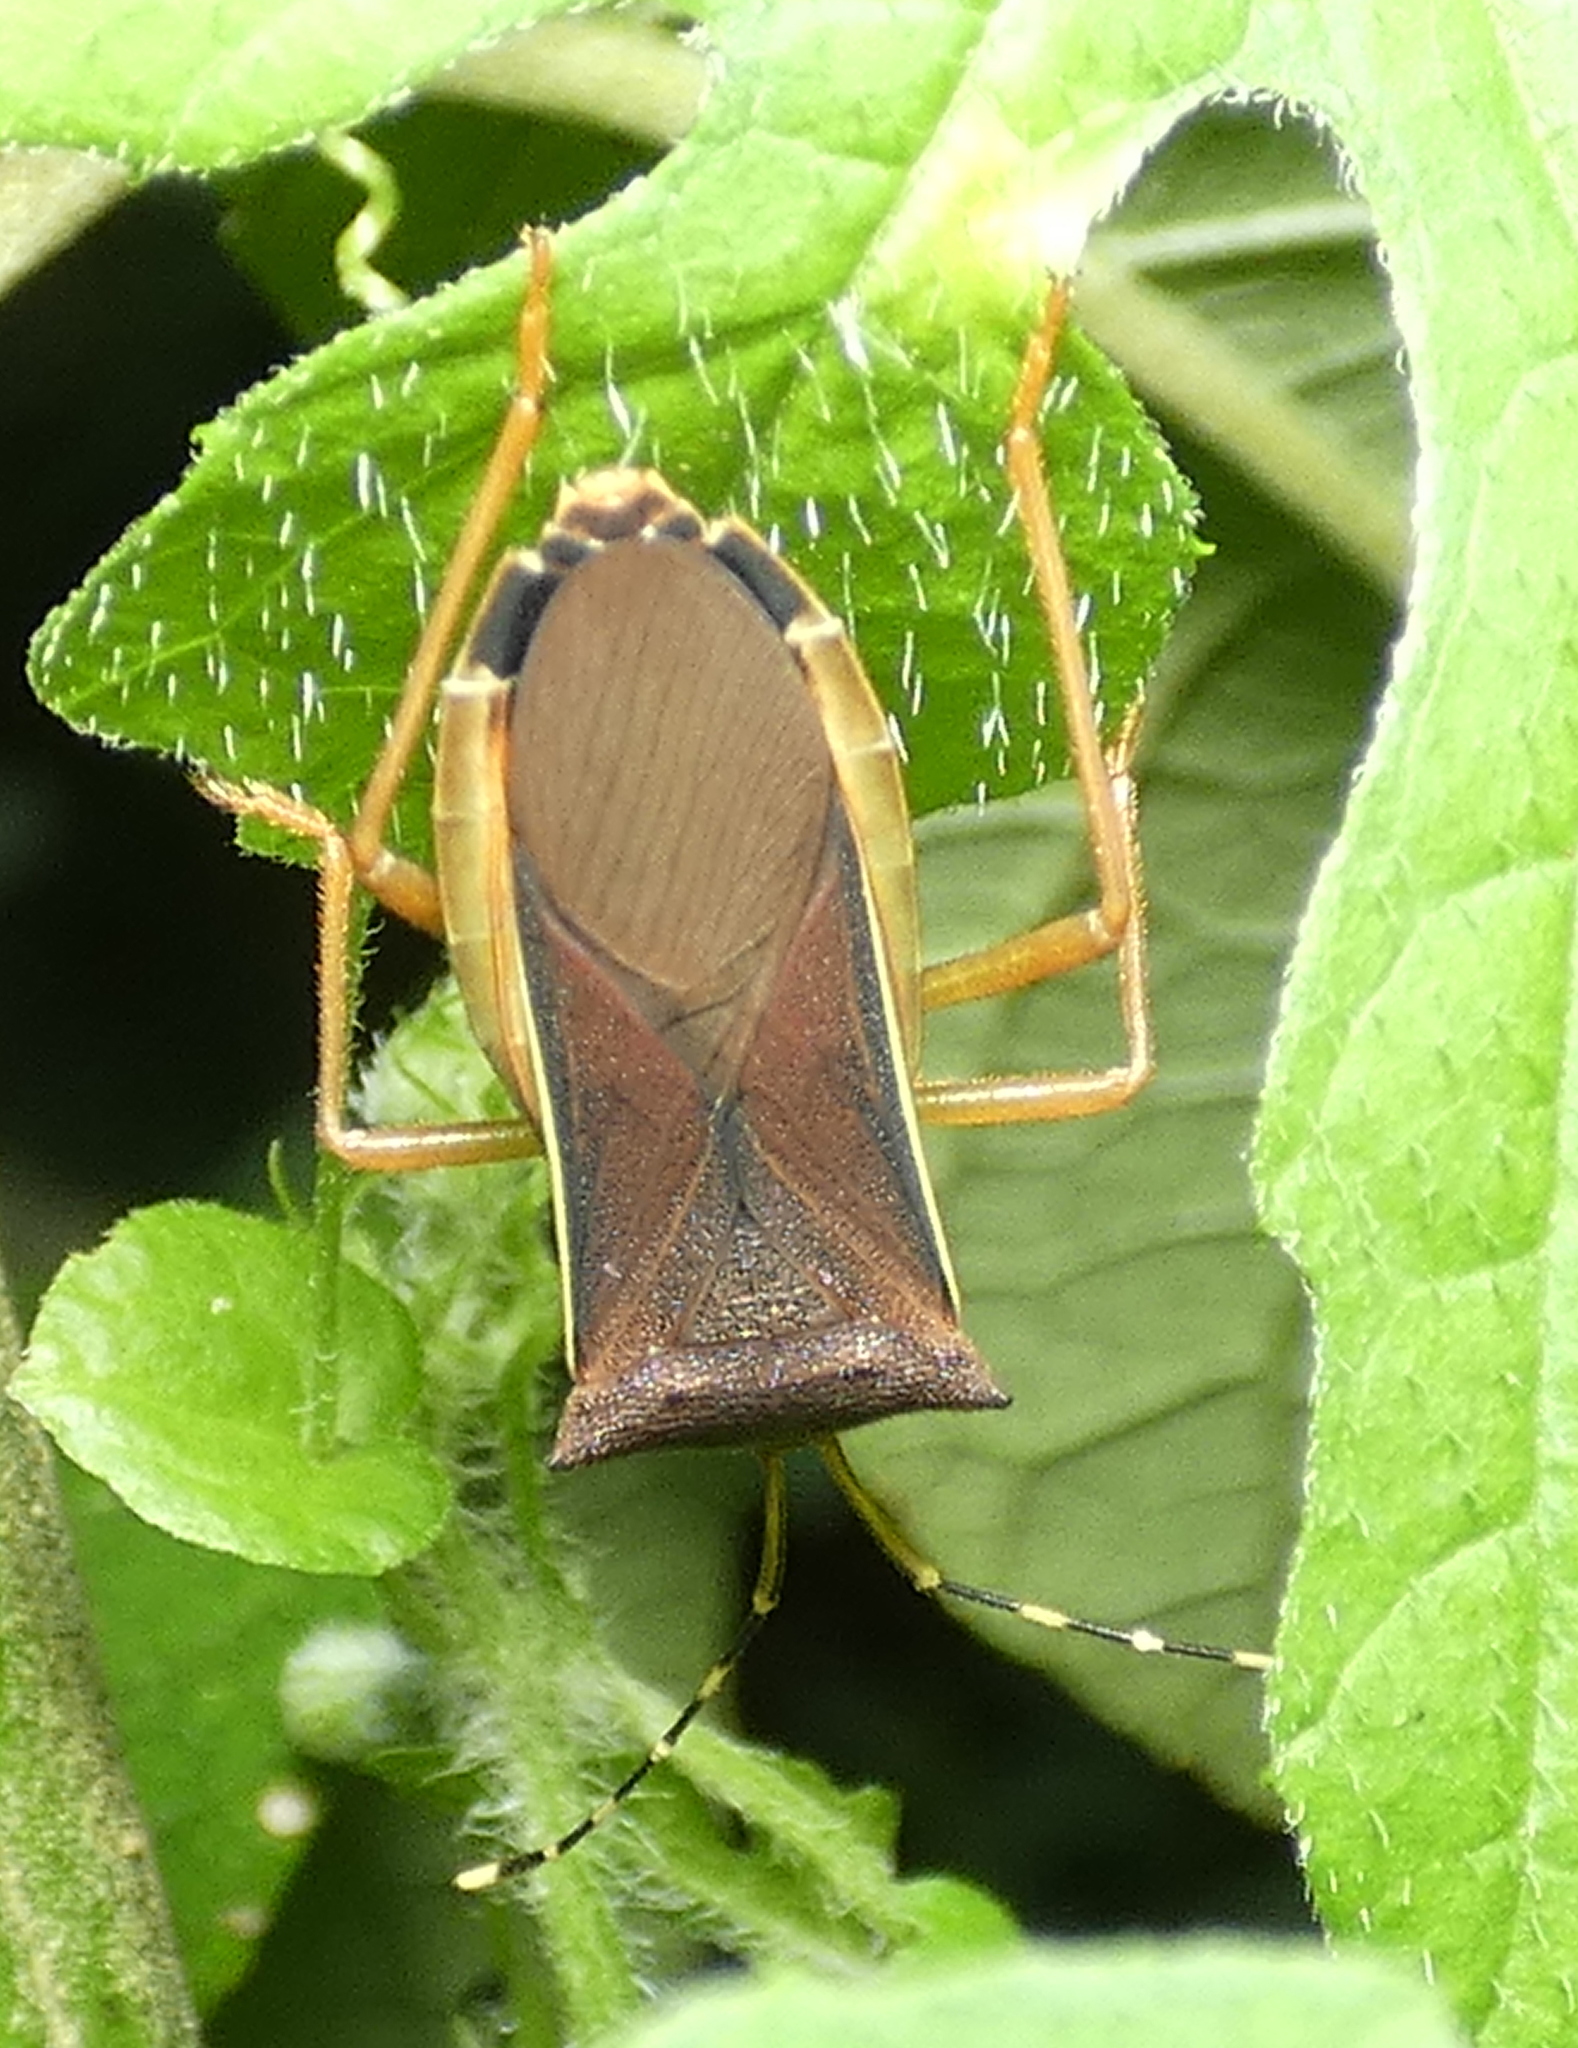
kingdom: Animalia
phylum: Arthropoda
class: Insecta
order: Hemiptera
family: Coreidae
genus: Anasa
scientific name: Anasa varicornis
